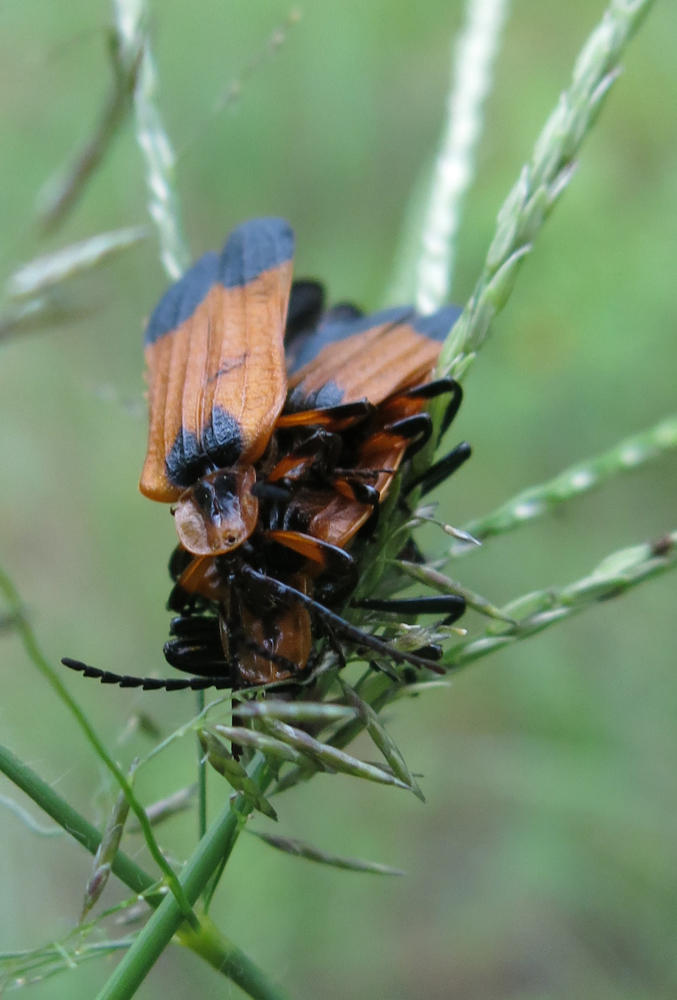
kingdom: Animalia
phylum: Arthropoda
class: Insecta
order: Coleoptera
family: Lycidae
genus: Lycus
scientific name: Lycus
